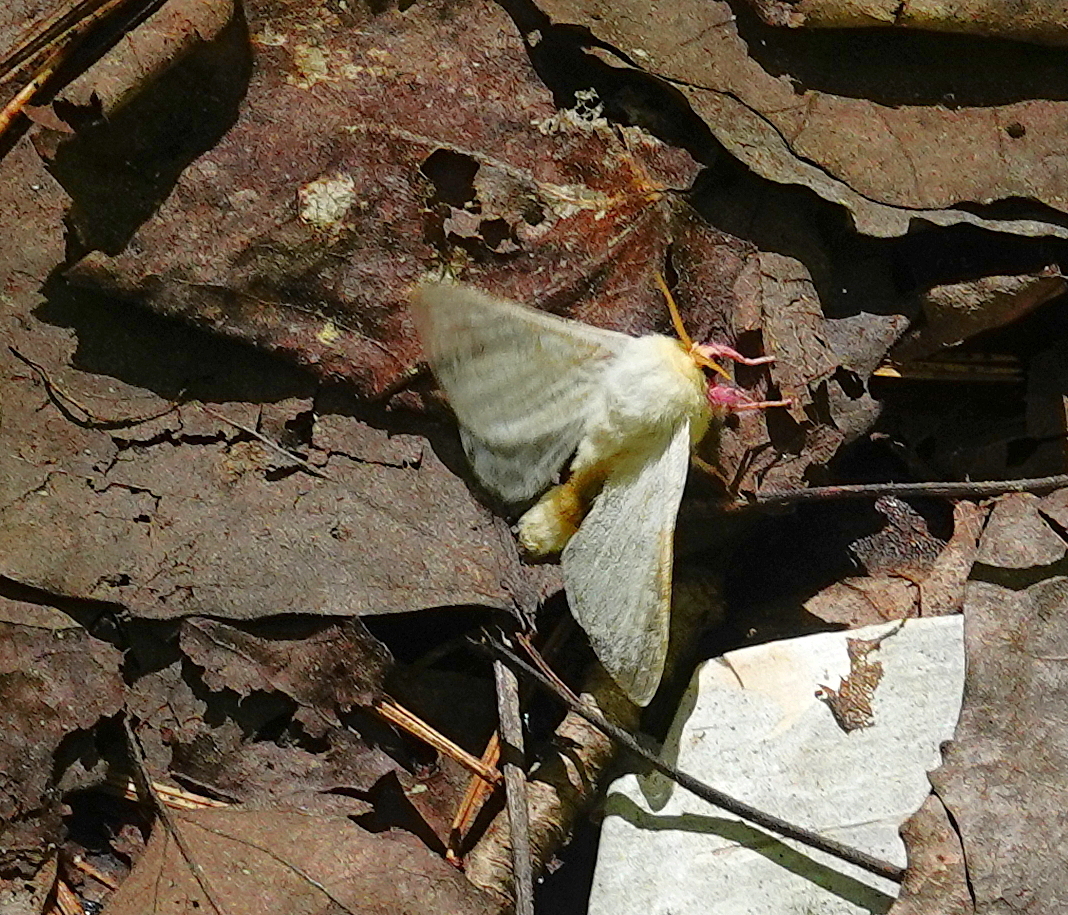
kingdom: Animalia
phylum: Arthropoda
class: Insecta
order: Lepidoptera
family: Saturniidae
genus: Dryocampa
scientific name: Dryocampa rubicunda
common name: Rosy maple moth
